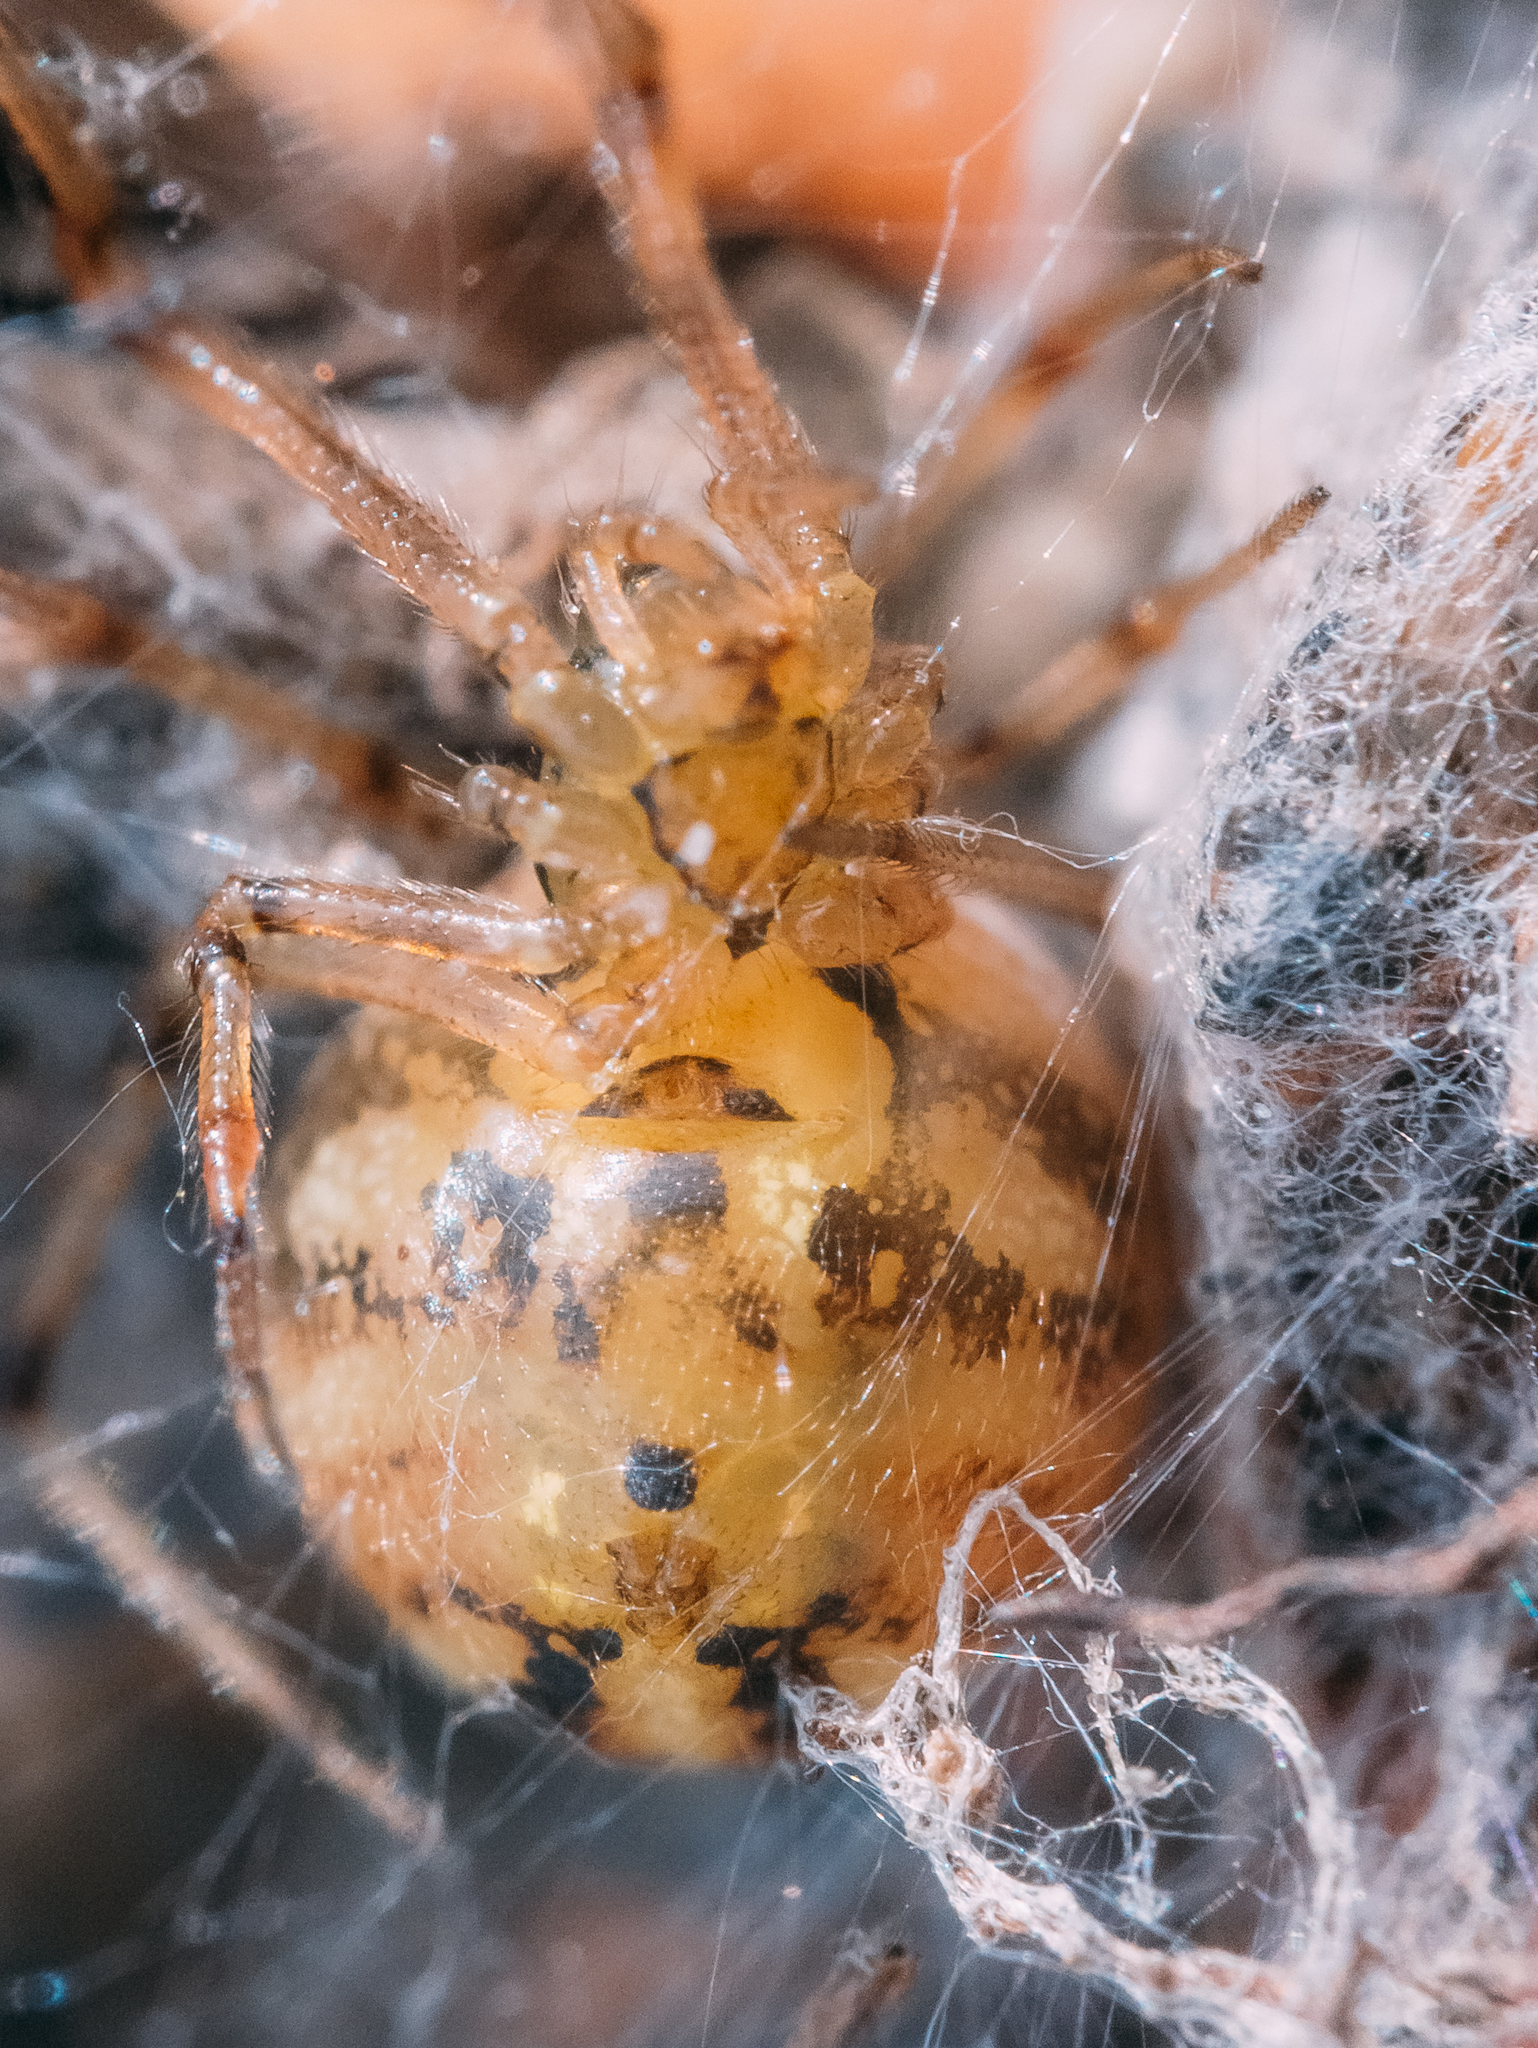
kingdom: Animalia
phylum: Arthropoda
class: Arachnida
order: Araneae
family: Theridiidae
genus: Phylloneta
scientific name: Phylloneta impressa
